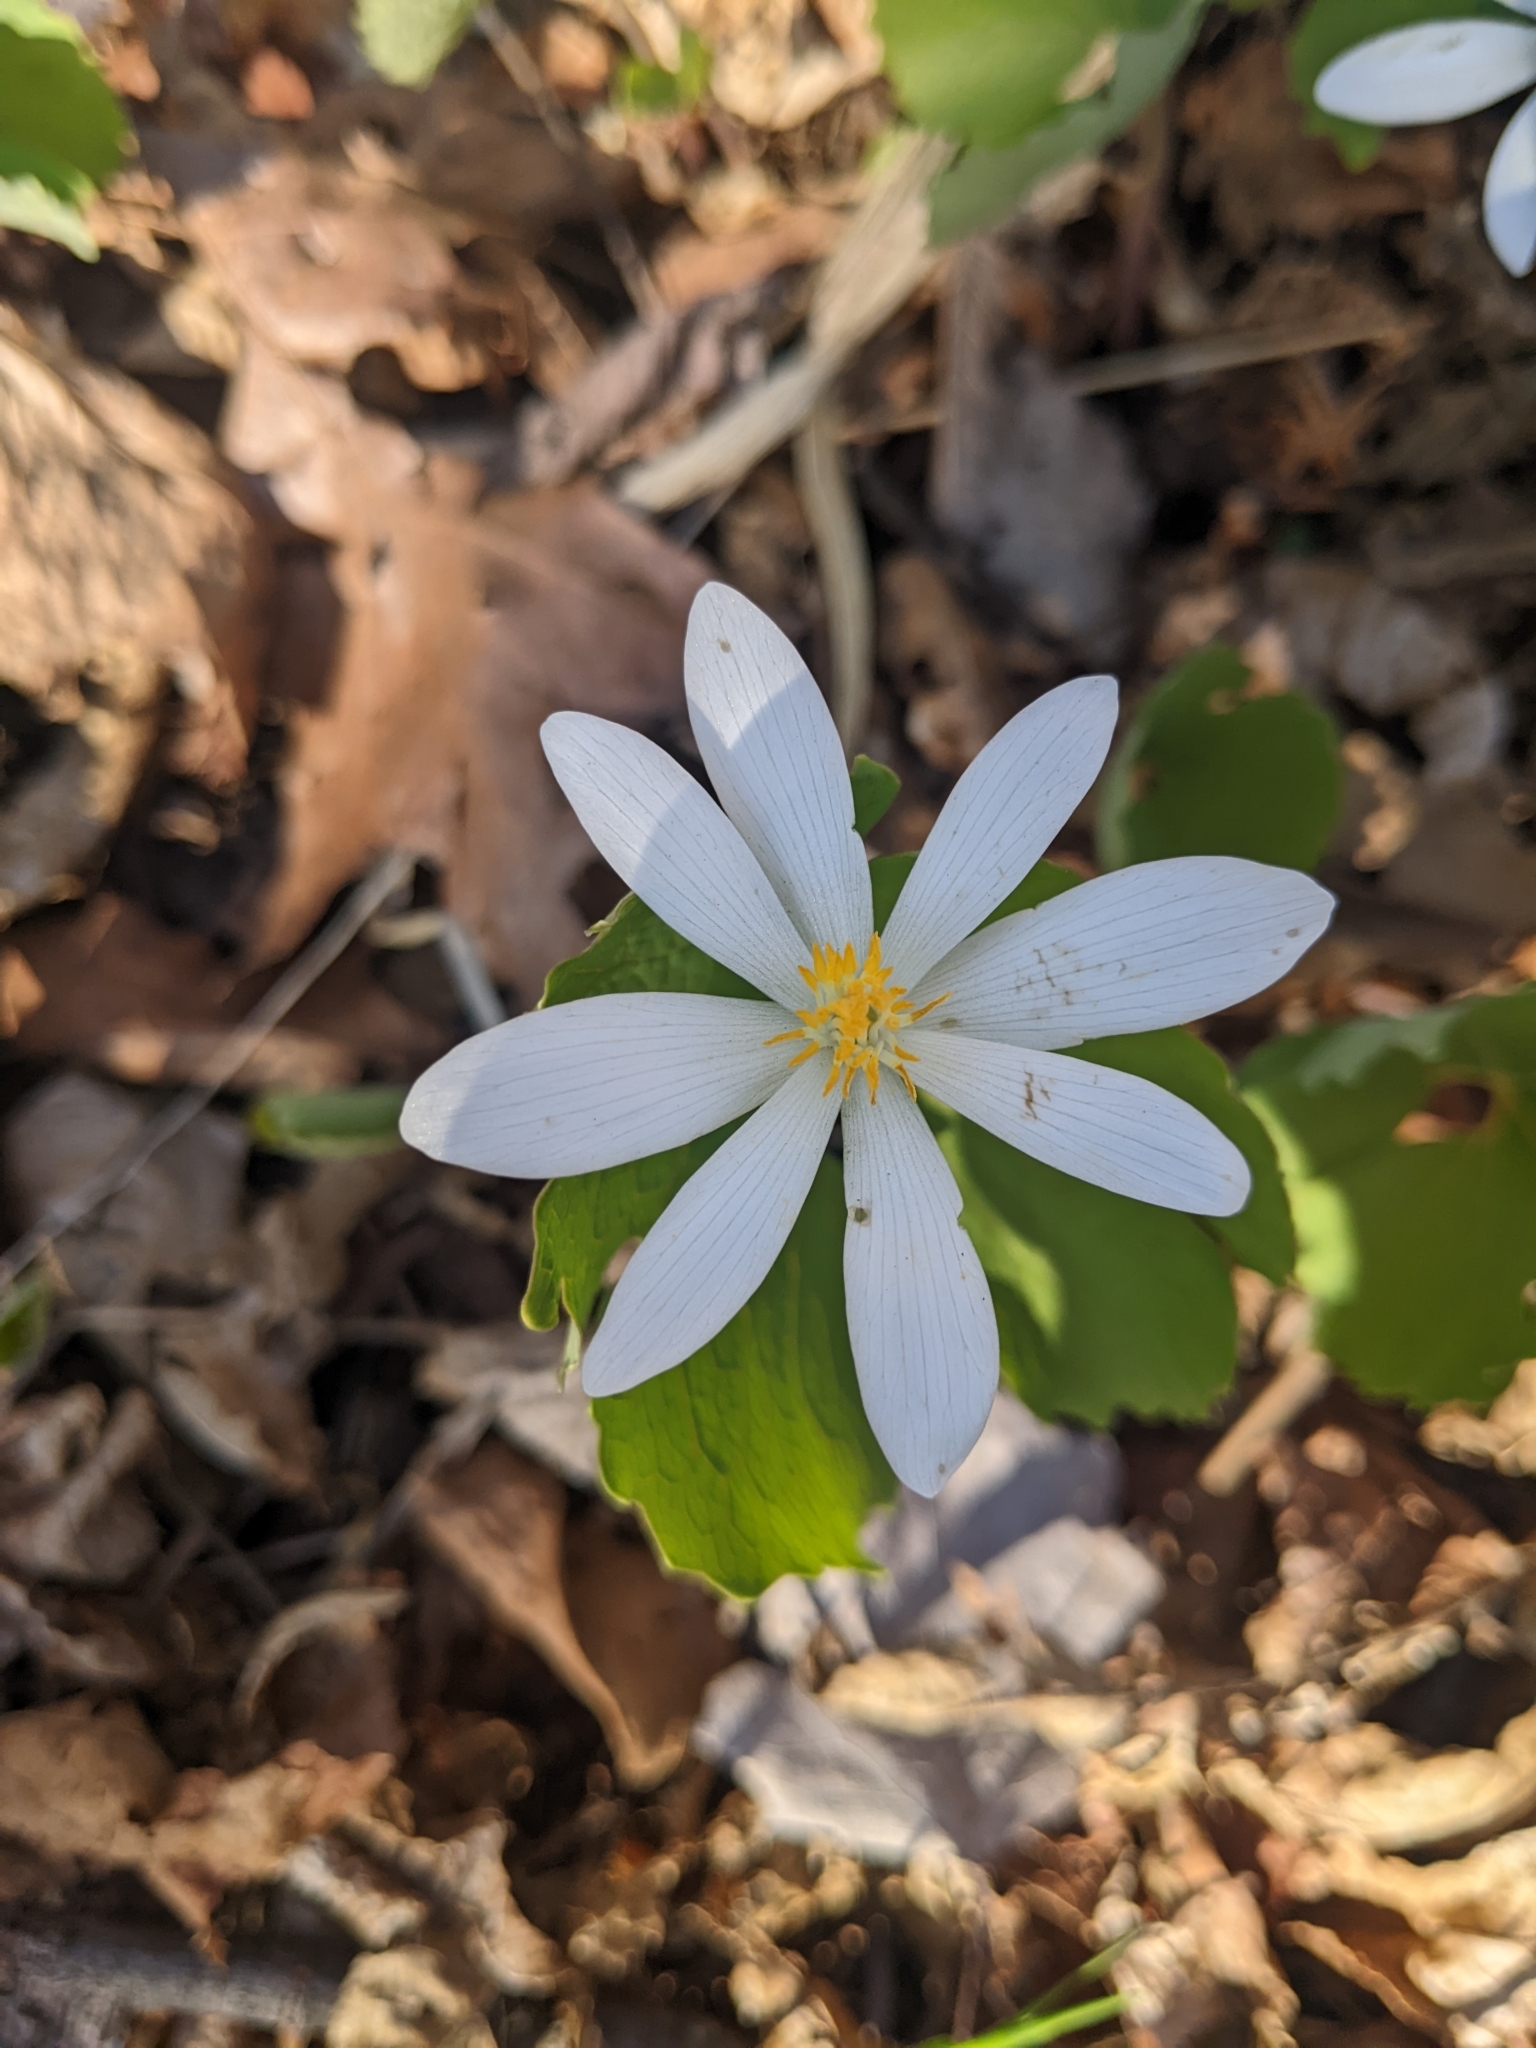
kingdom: Plantae
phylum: Tracheophyta
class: Magnoliopsida
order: Ranunculales
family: Papaveraceae
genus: Sanguinaria
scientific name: Sanguinaria canadensis
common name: Bloodroot
